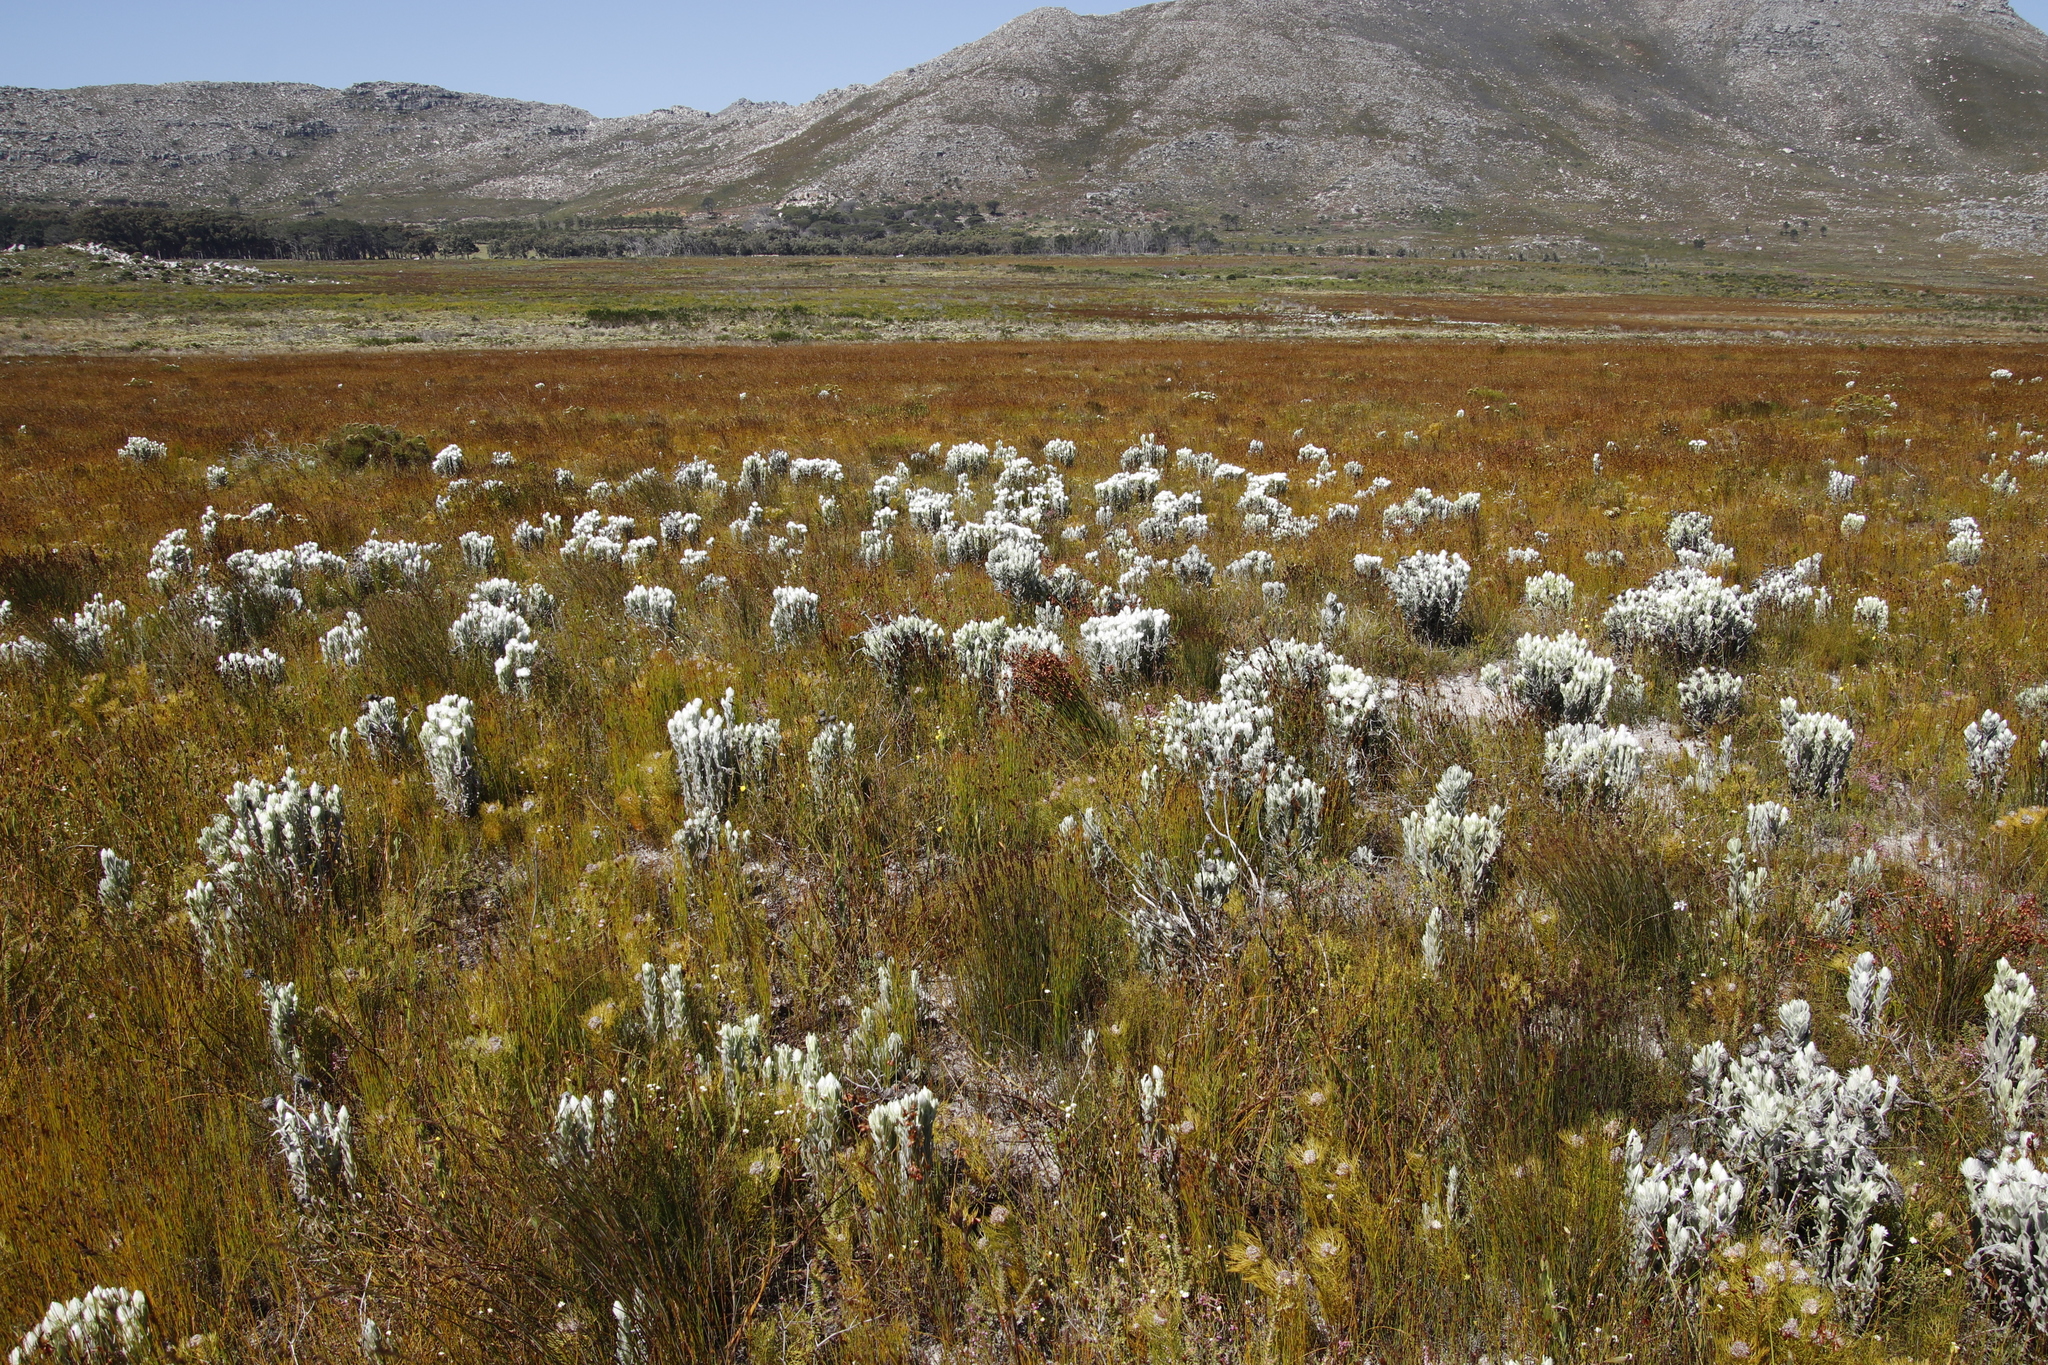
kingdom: Plantae
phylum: Tracheophyta
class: Magnoliopsida
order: Asterales
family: Asteraceae
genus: Syncarpha
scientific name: Syncarpha vestita
